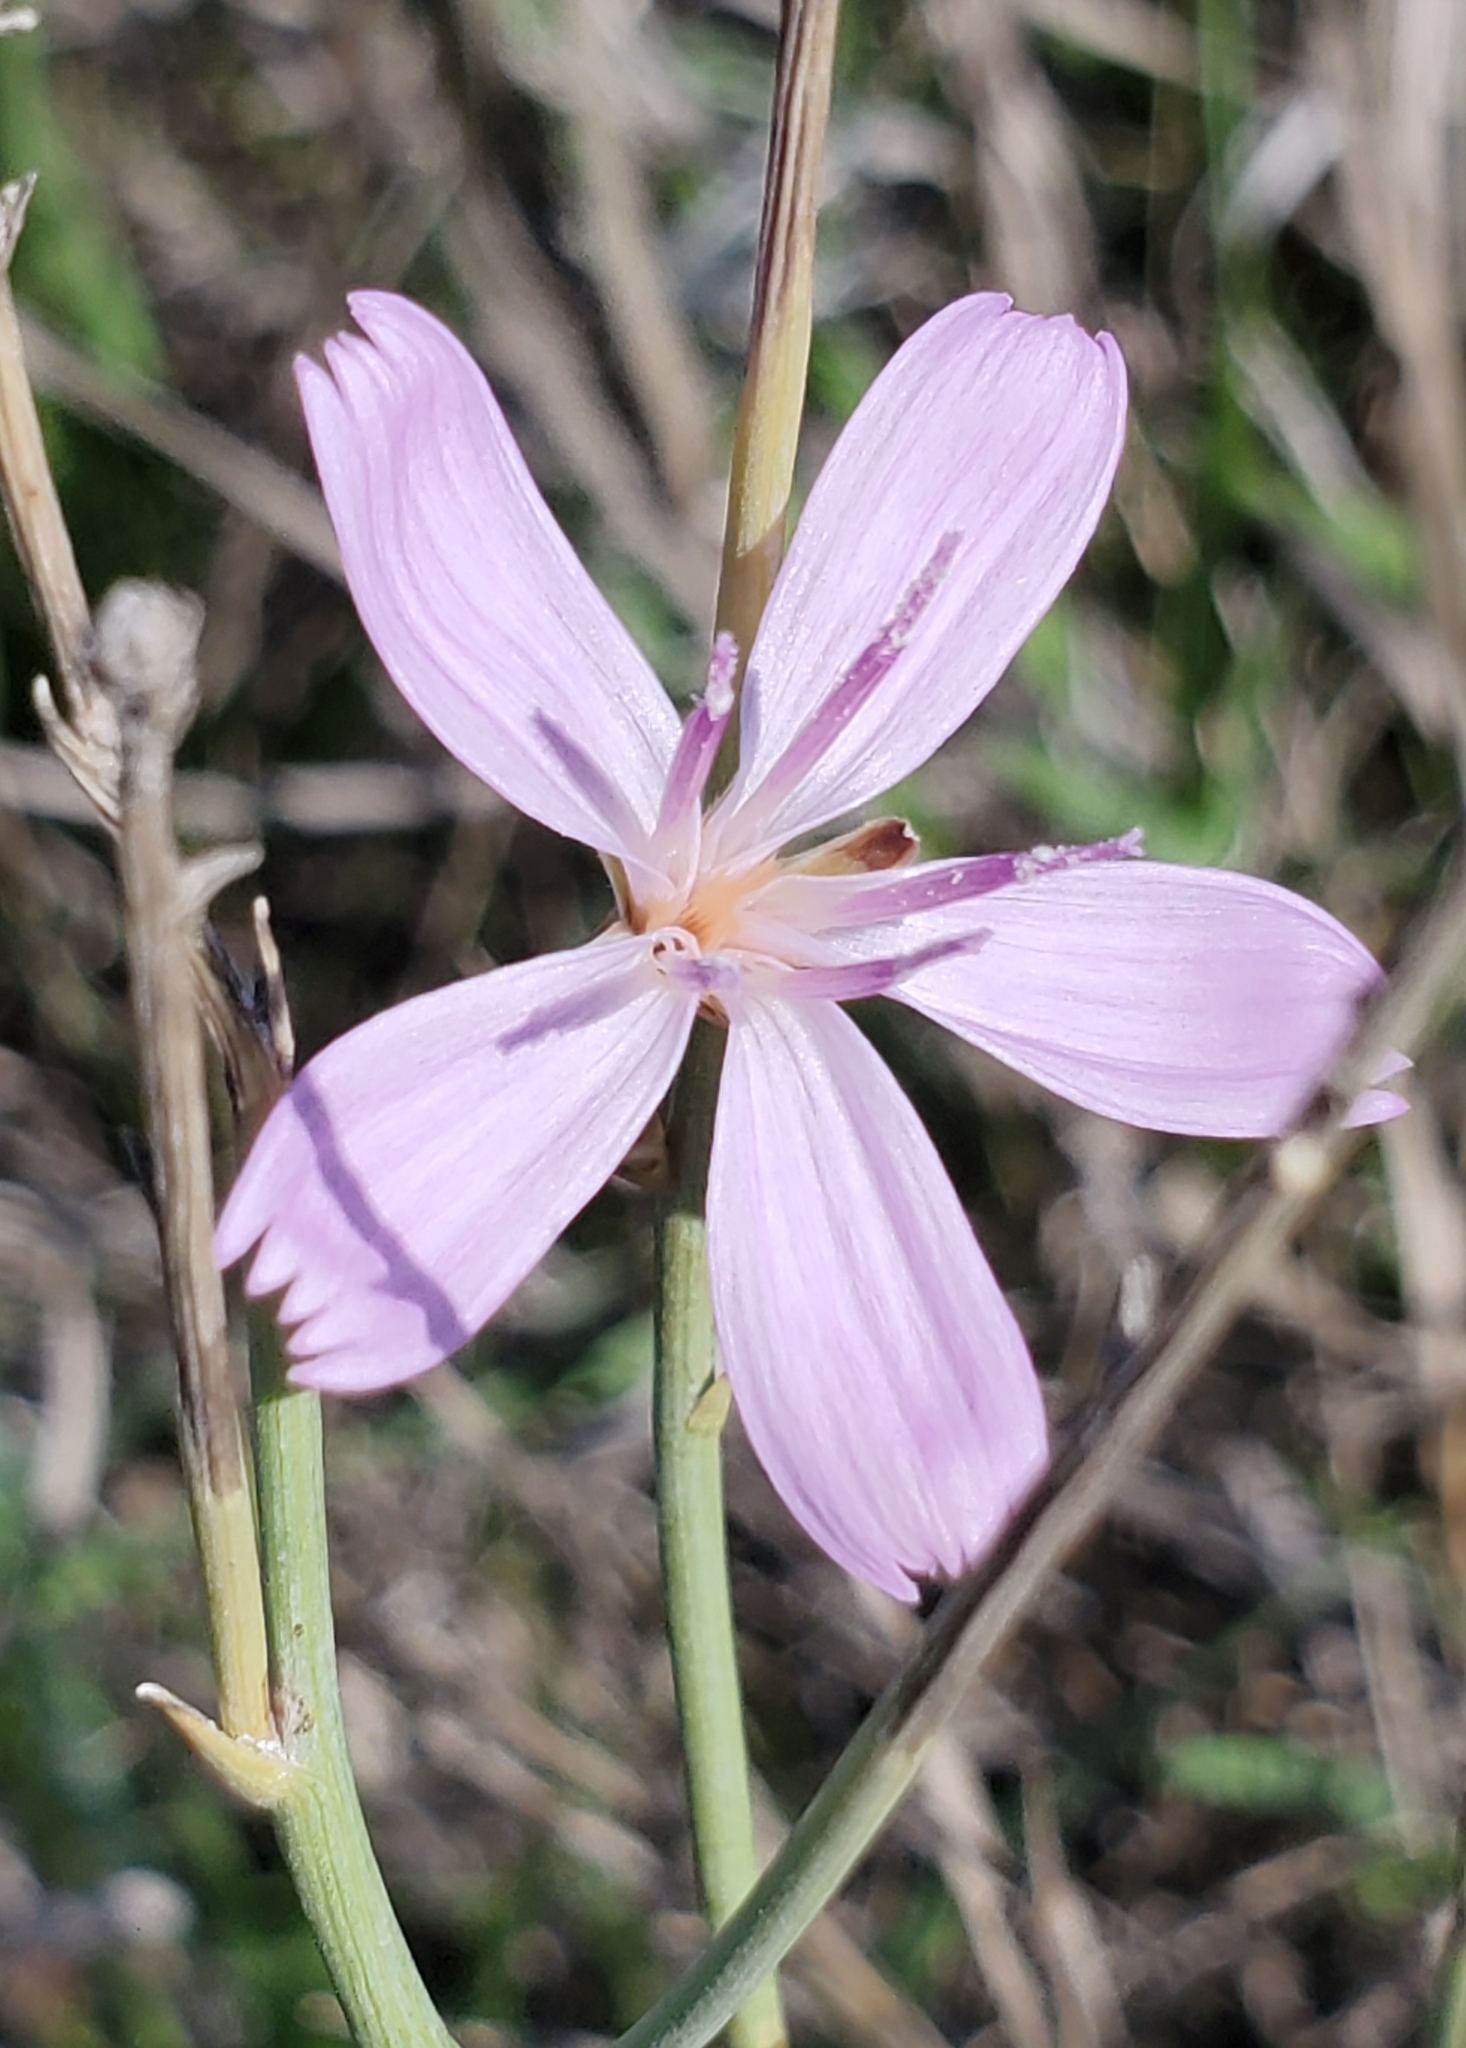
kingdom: Plantae
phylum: Tracheophyta
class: Magnoliopsida
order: Asterales
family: Asteraceae
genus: Lygodesmia
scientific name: Lygodesmia juncea
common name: Common skeletonweed
